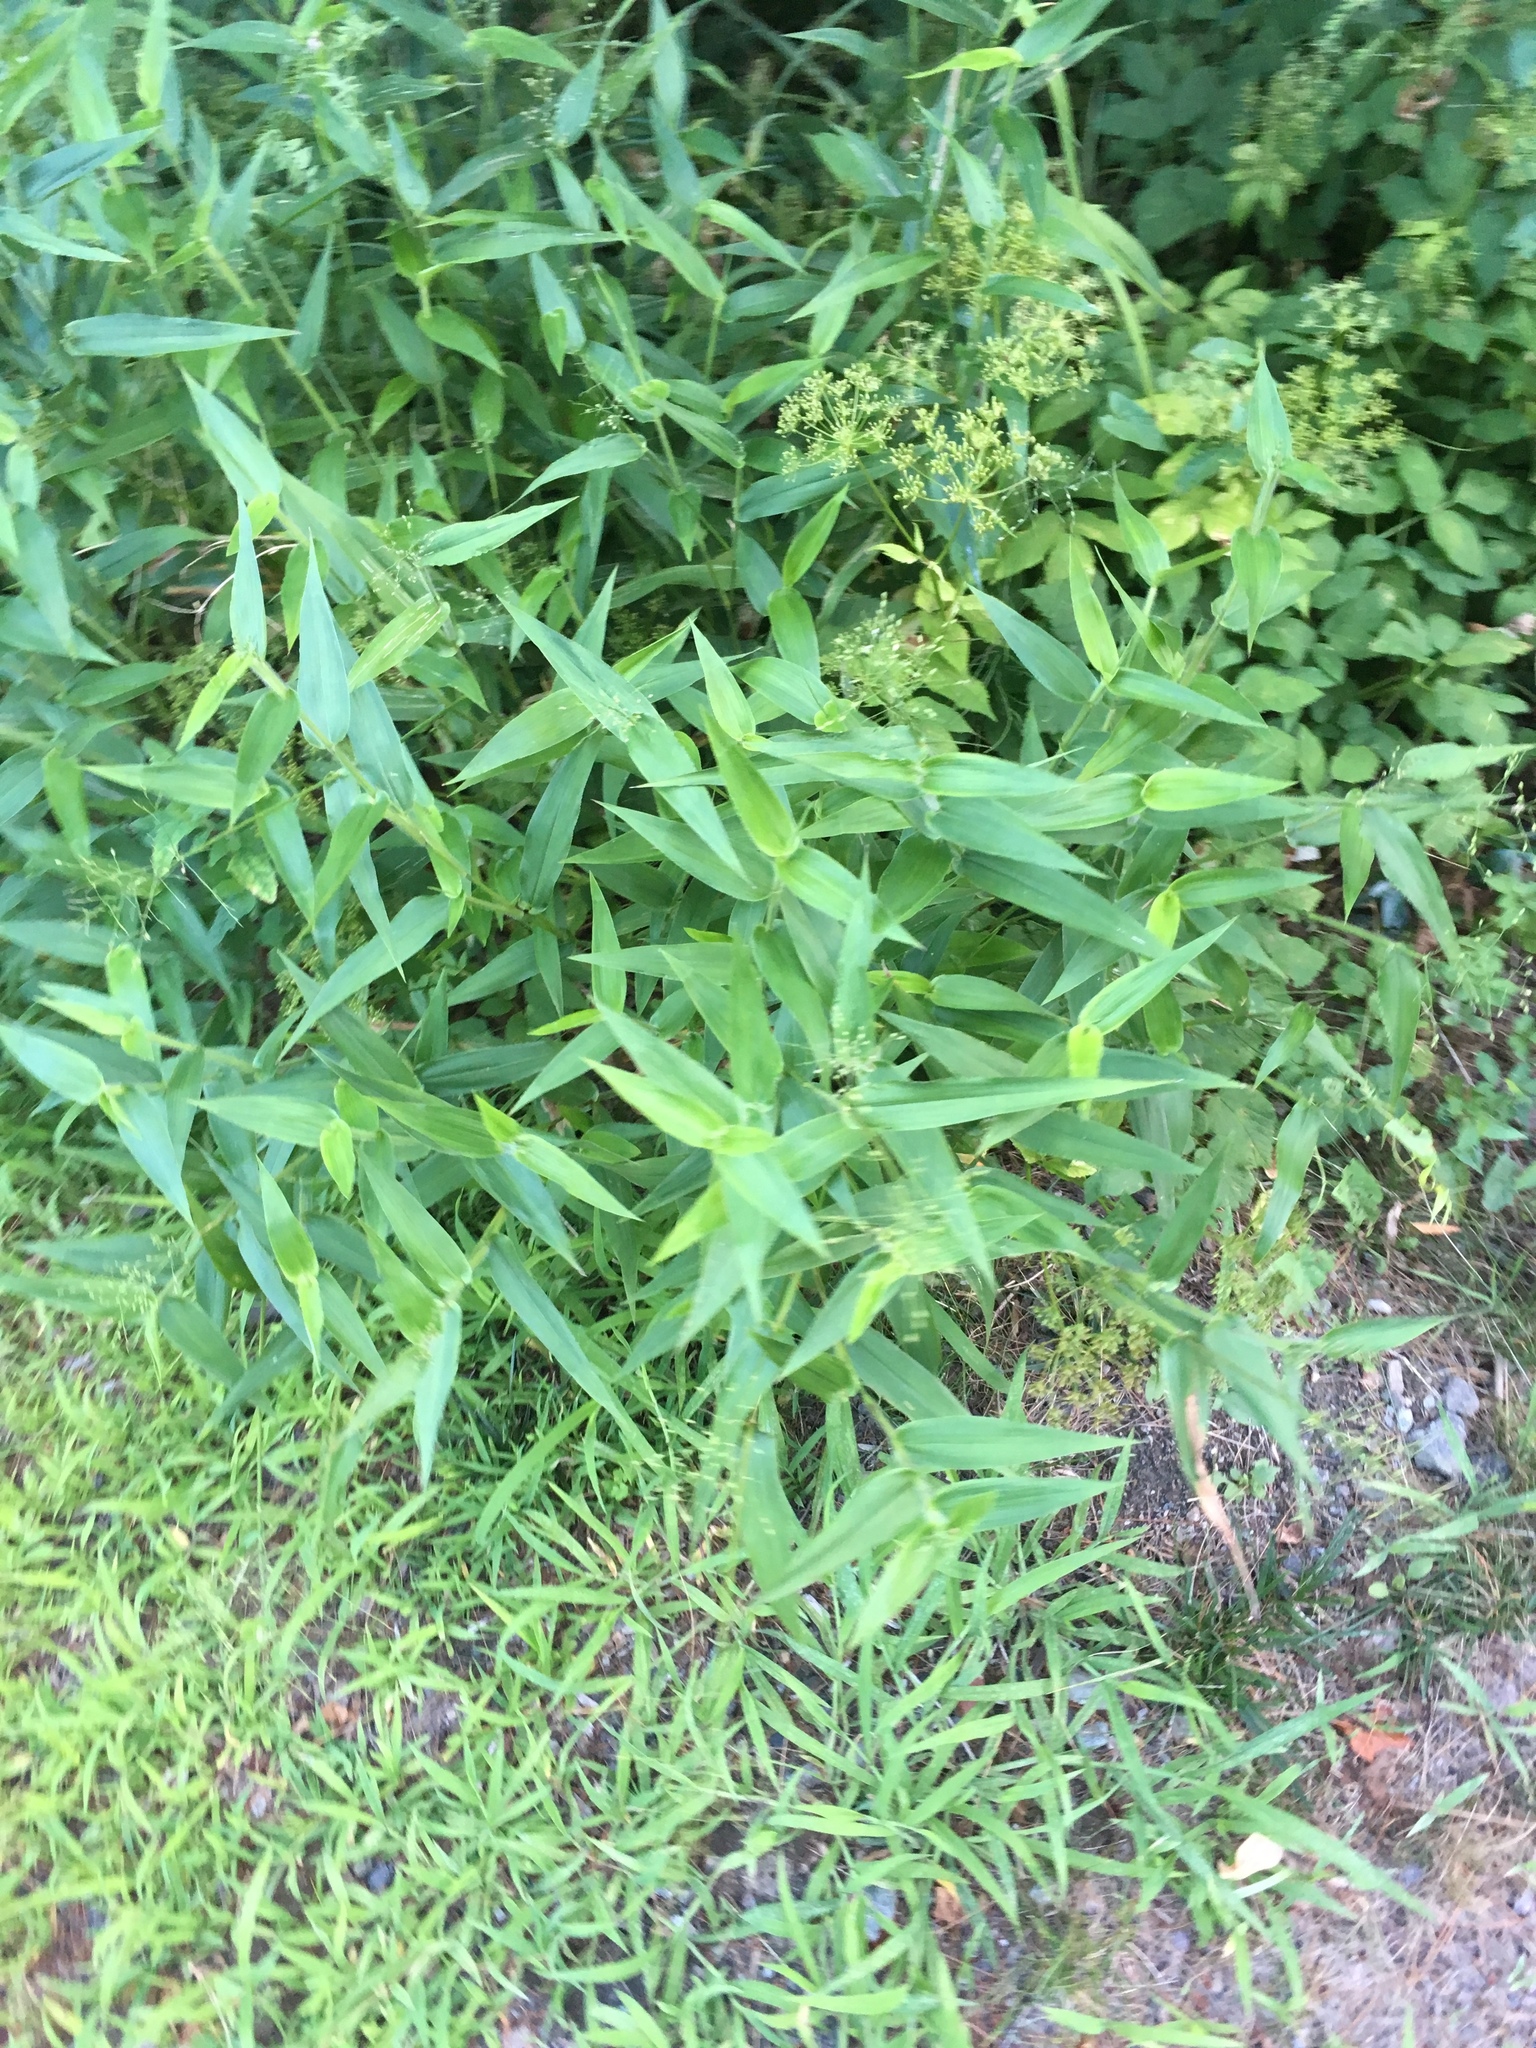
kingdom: Plantae
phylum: Tracheophyta
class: Liliopsida
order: Poales
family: Poaceae
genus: Dichanthelium
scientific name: Dichanthelium clandestinum
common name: Deer-tongue grass
